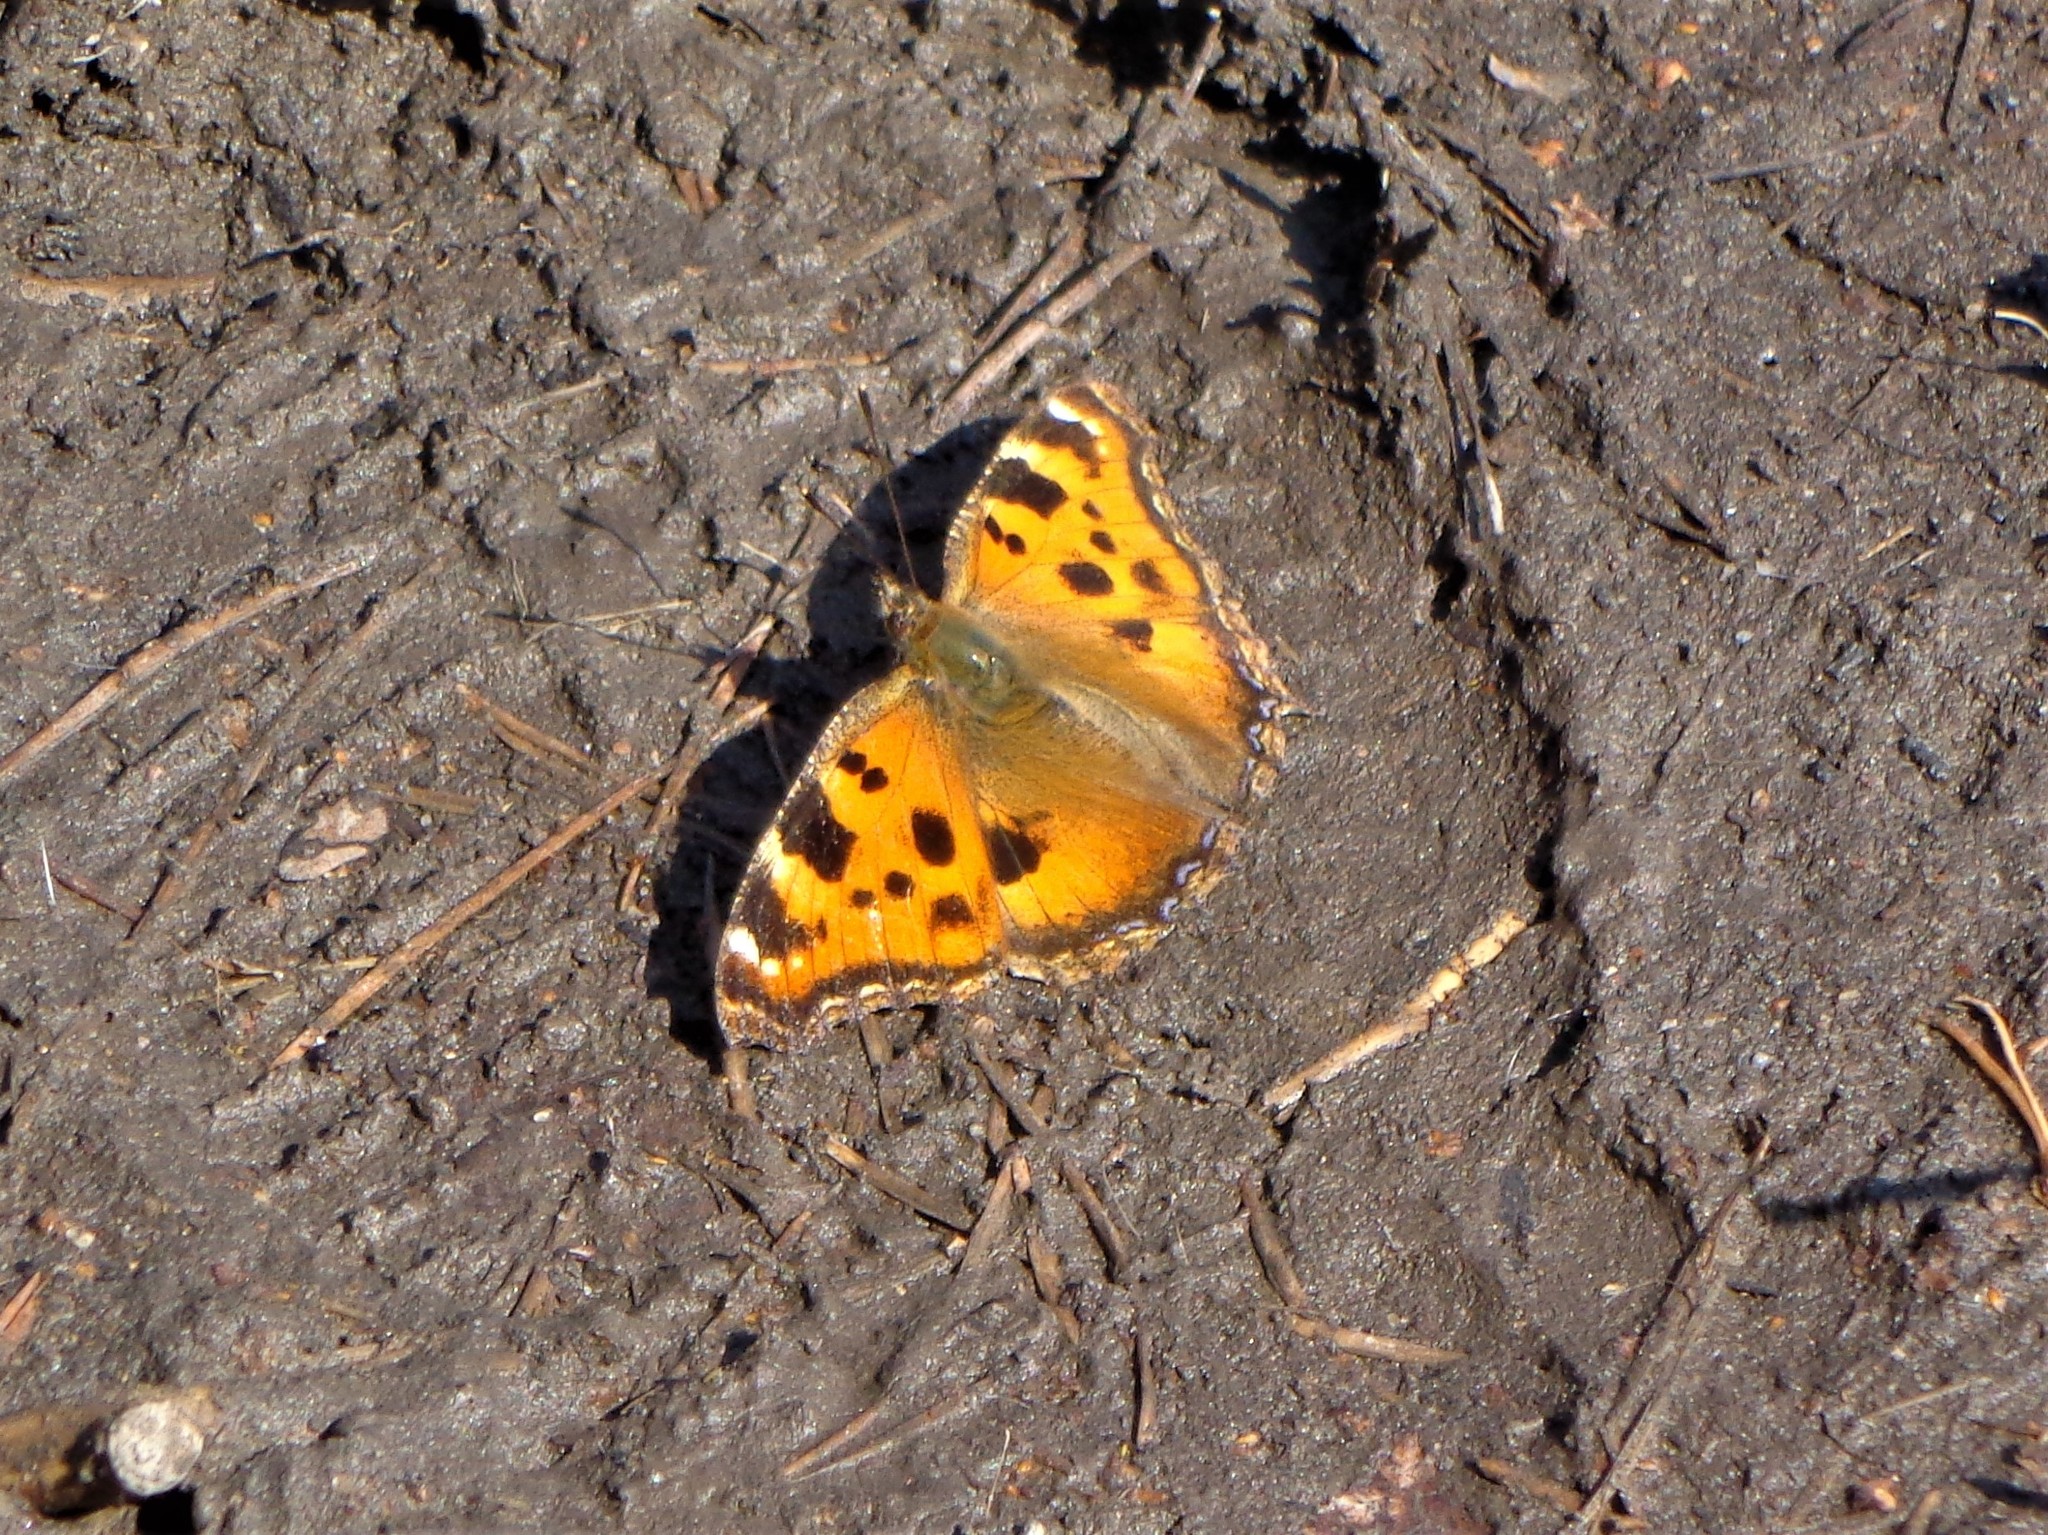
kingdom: Animalia
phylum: Arthropoda
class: Insecta
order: Lepidoptera
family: Nymphalidae
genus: Nymphalis
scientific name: Nymphalis xanthomelas
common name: Scarce tortoiseshell
